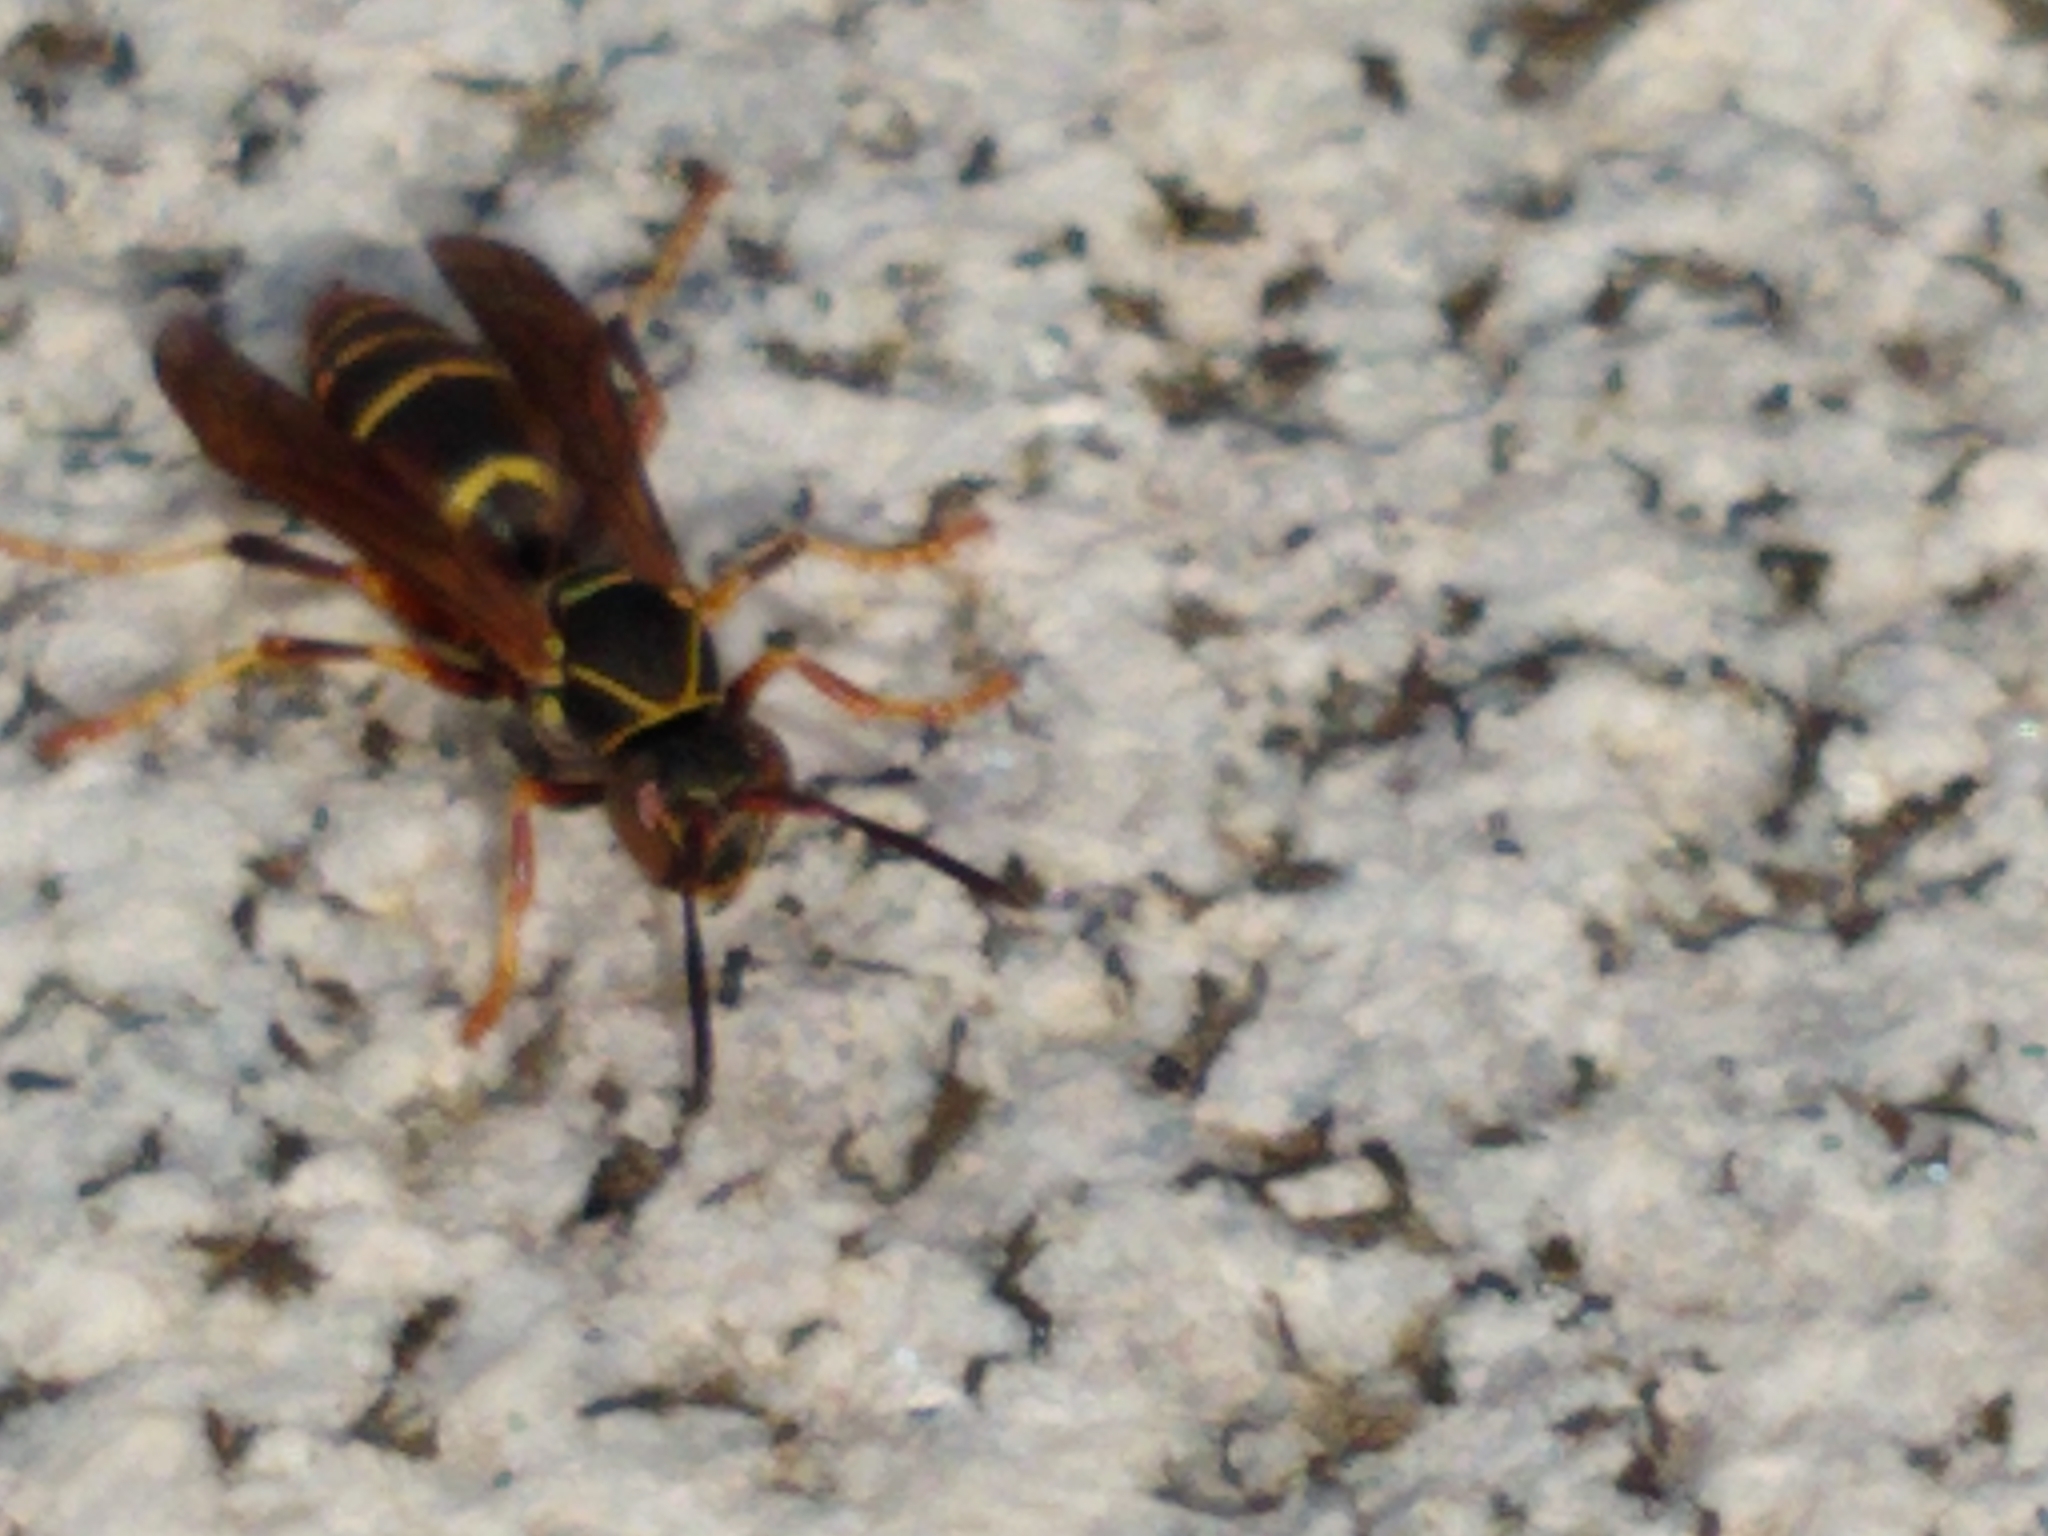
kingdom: Animalia
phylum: Arthropoda
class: Insecta
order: Hymenoptera
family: Eumenidae
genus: Polistes
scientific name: Polistes fuscatus
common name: Dark paper wasp
